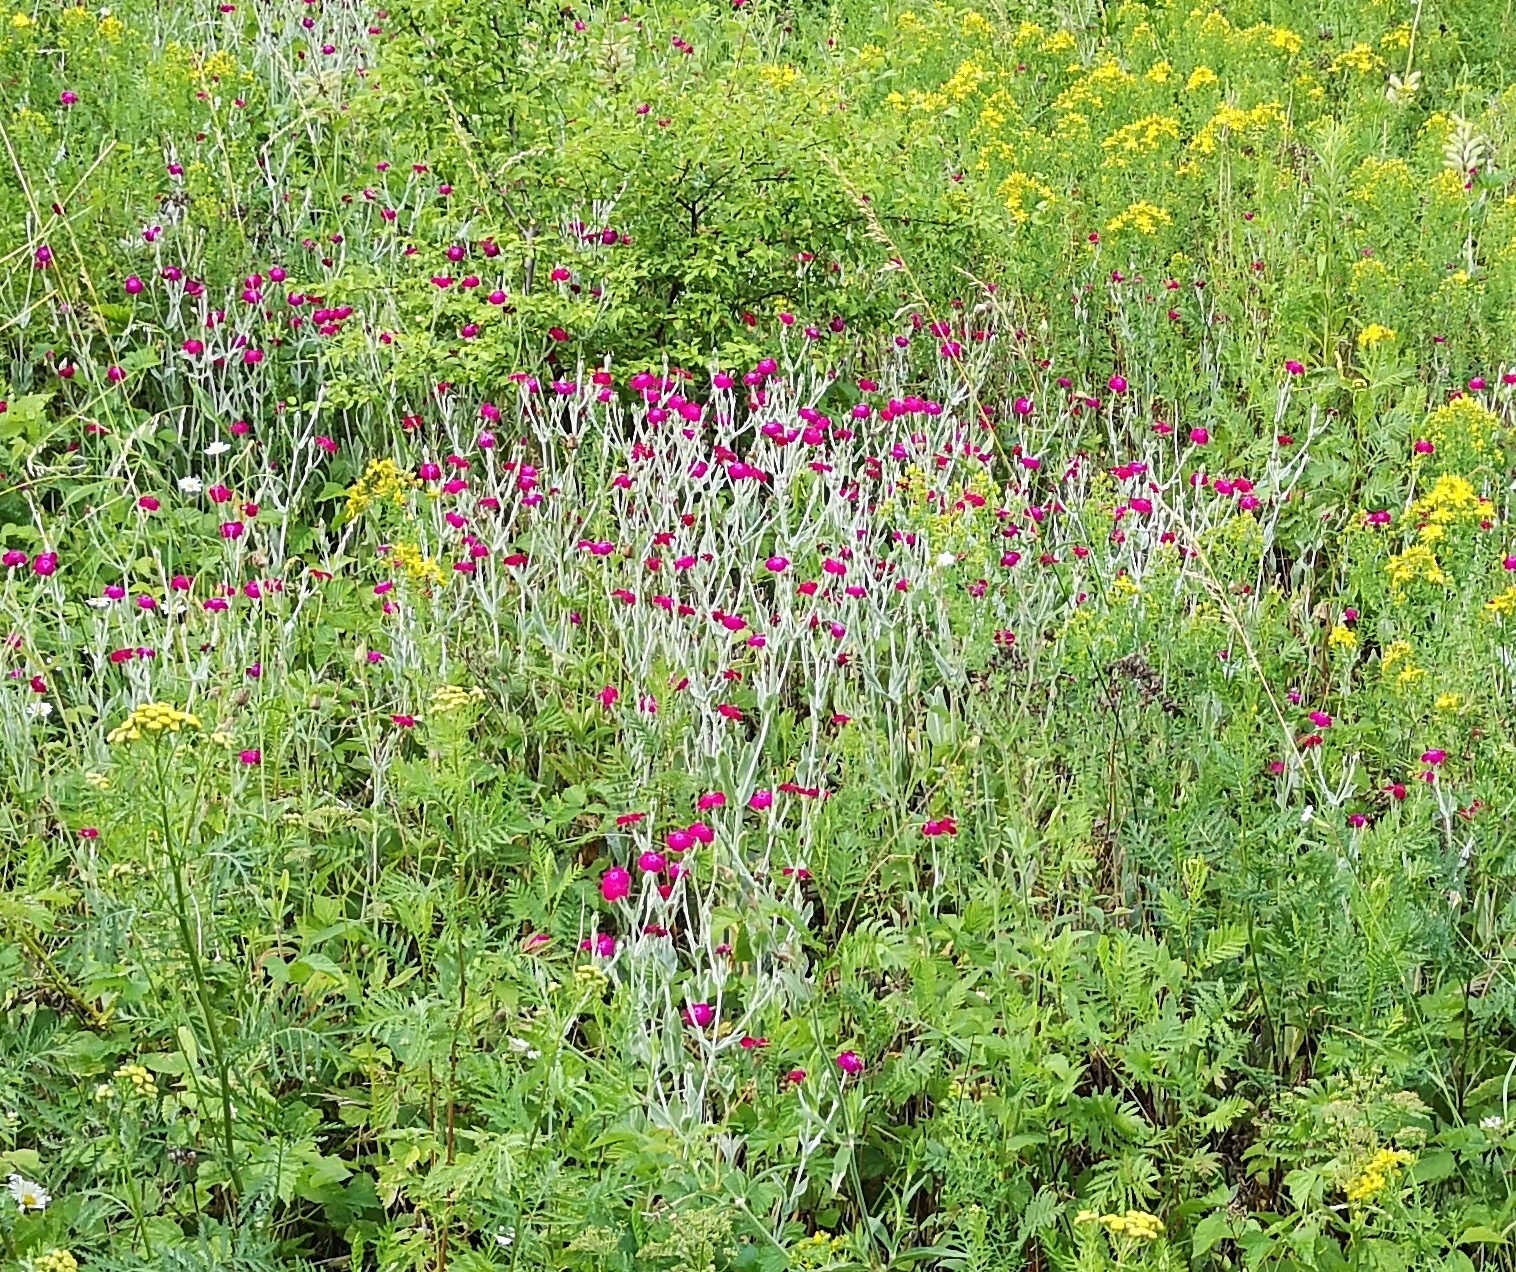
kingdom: Plantae
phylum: Tracheophyta
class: Magnoliopsida
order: Caryophyllales
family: Caryophyllaceae
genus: Silene
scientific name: Silene coronaria
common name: Rose campion
